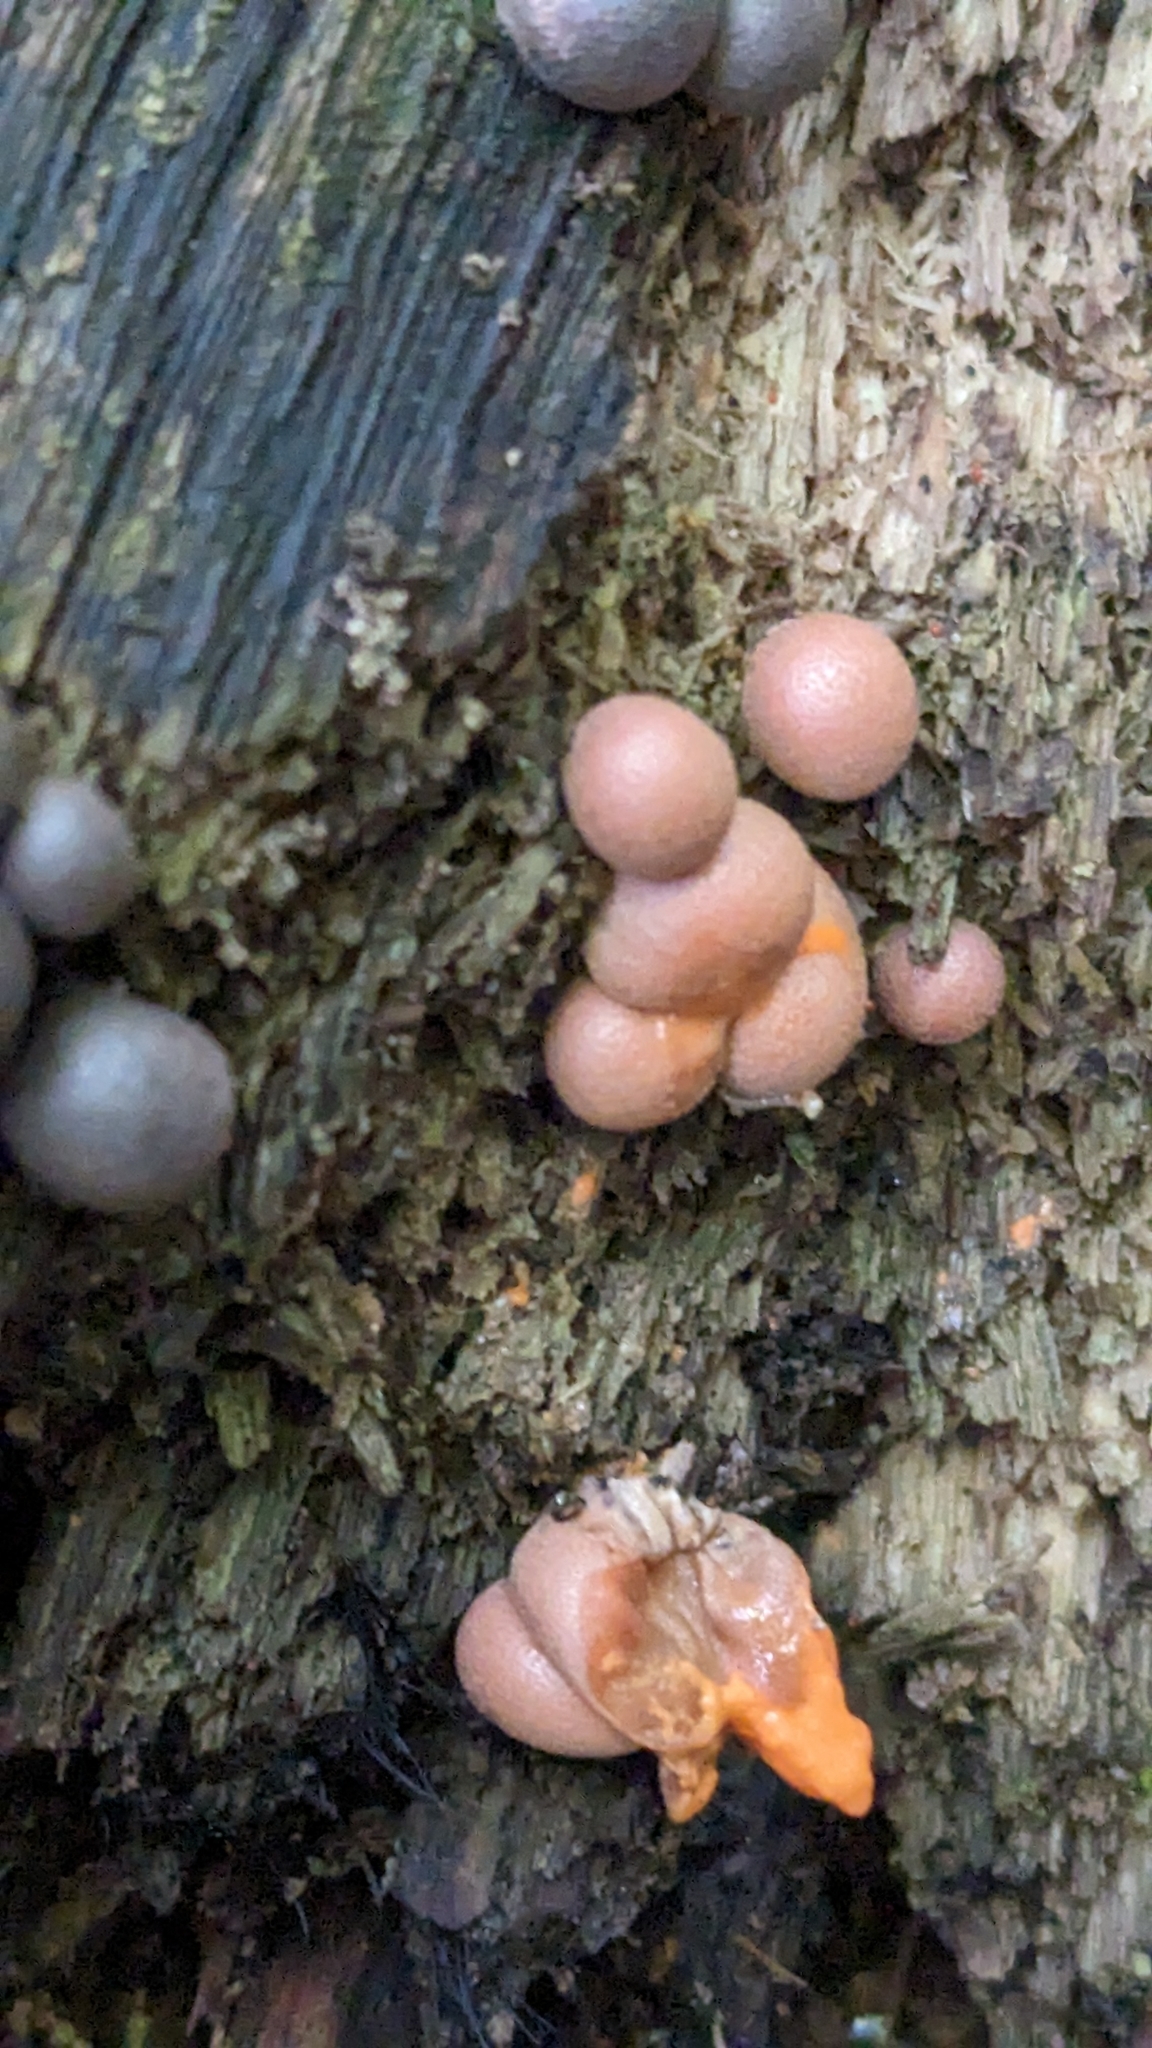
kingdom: Protozoa
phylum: Mycetozoa
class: Myxomycetes
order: Cribrariales
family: Tubiferaceae
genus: Lycogala
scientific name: Lycogala epidendrum
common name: Wolf's milk
